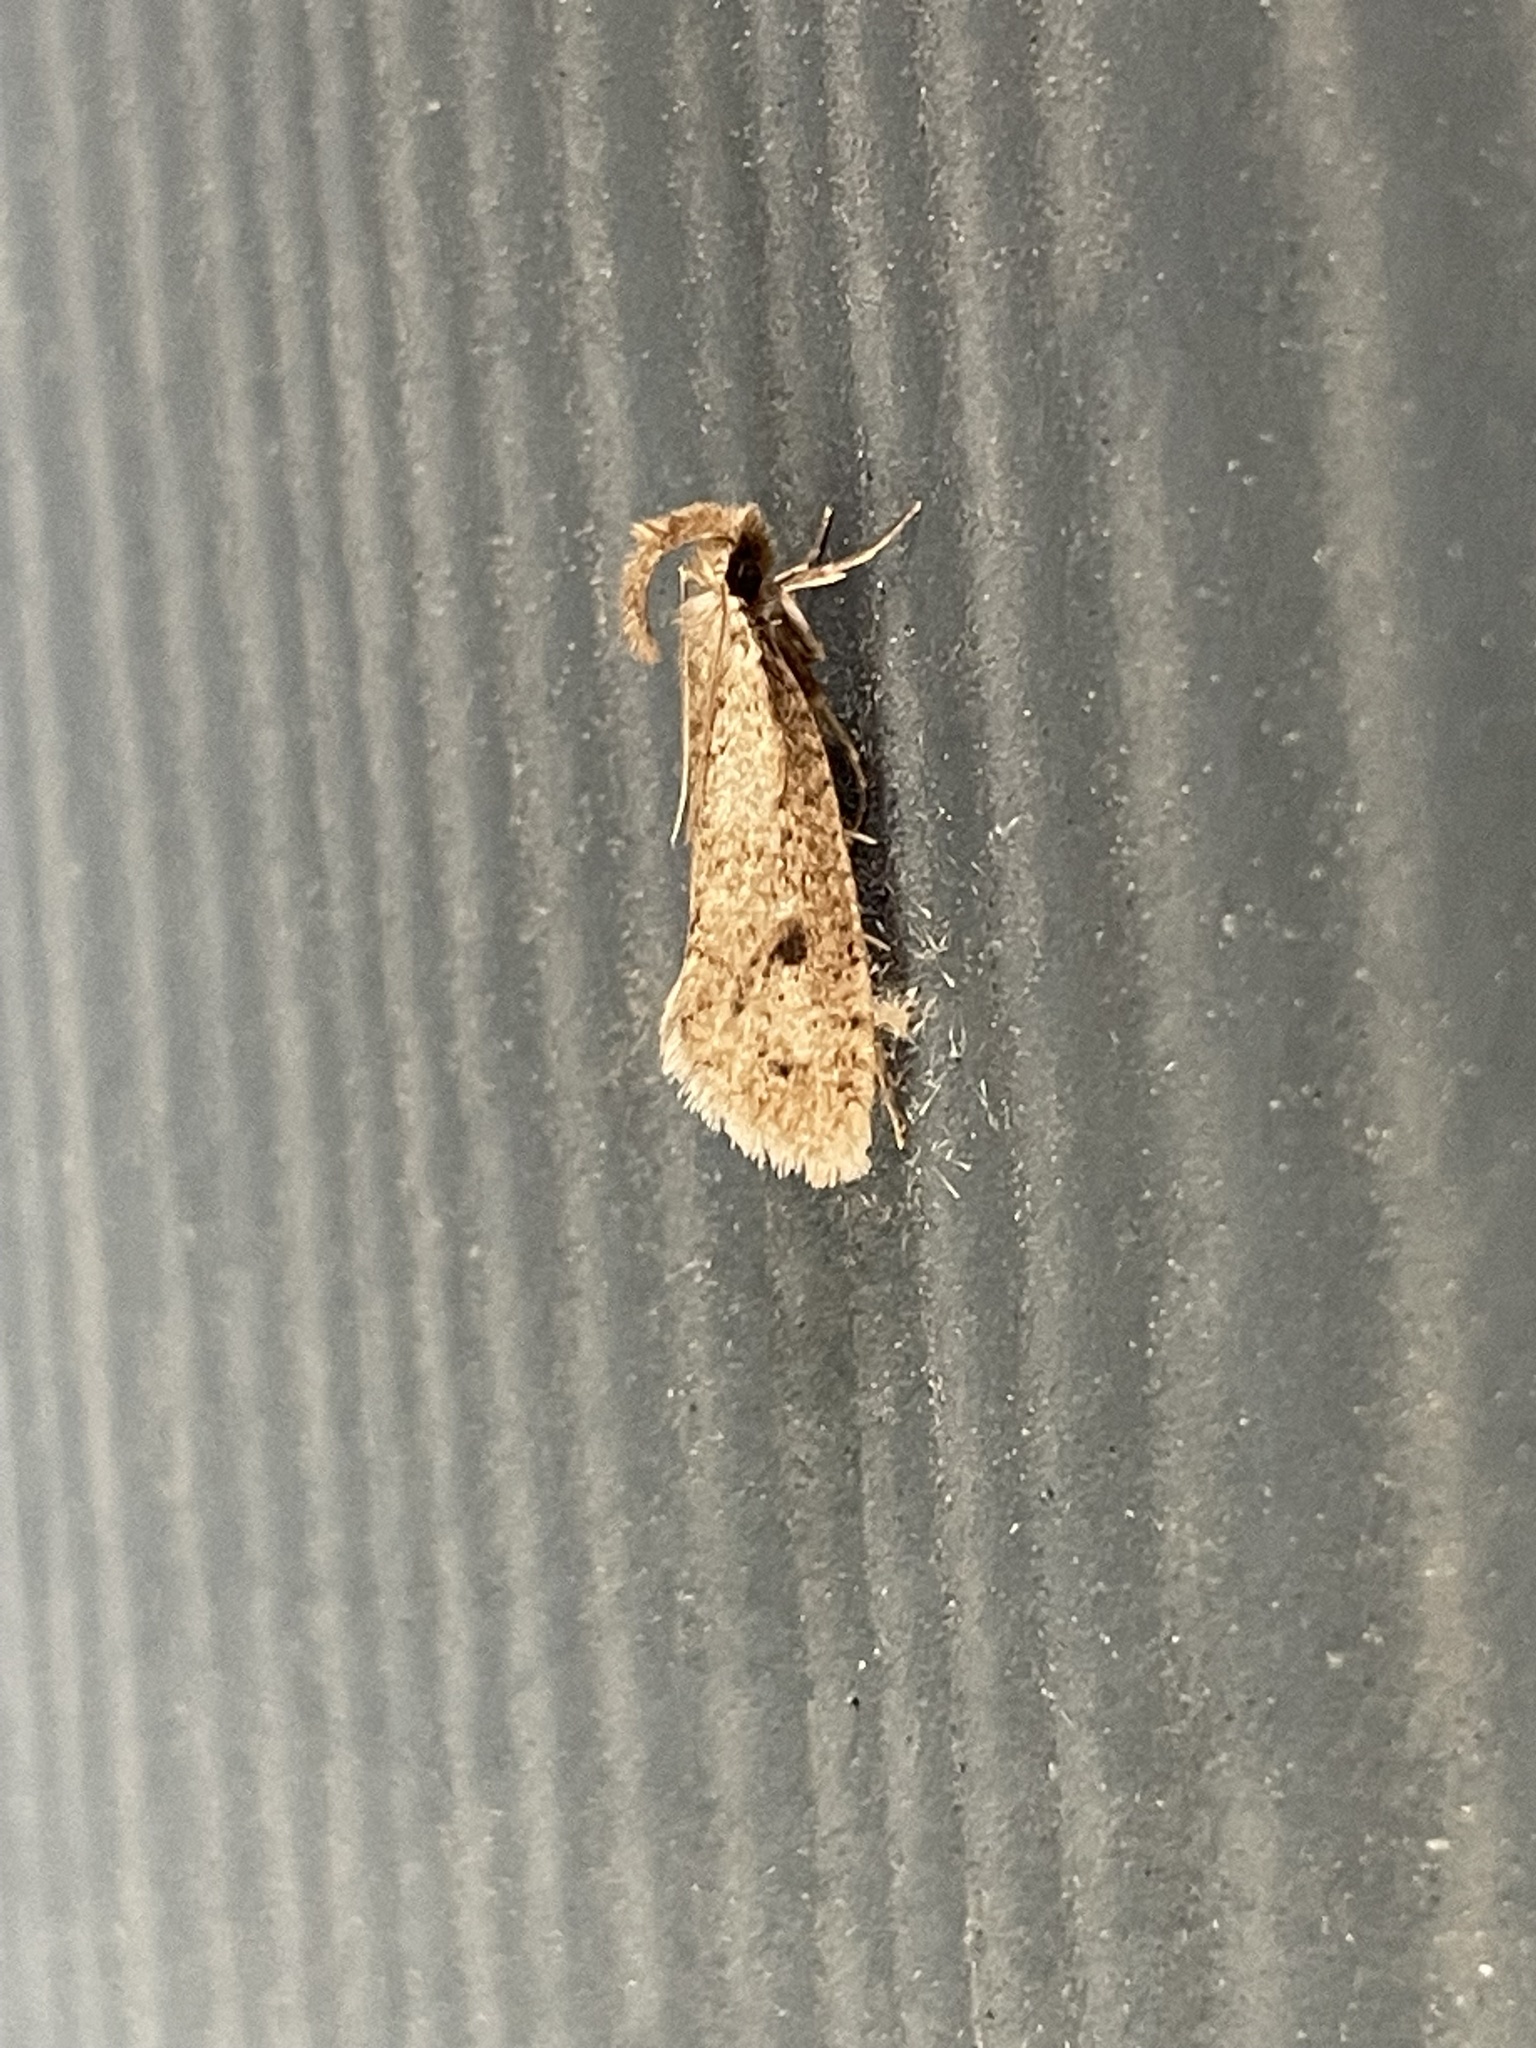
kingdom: Animalia
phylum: Arthropoda
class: Insecta
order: Lepidoptera
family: Tineidae
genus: Acrolophus
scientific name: Acrolophus mortipennella
